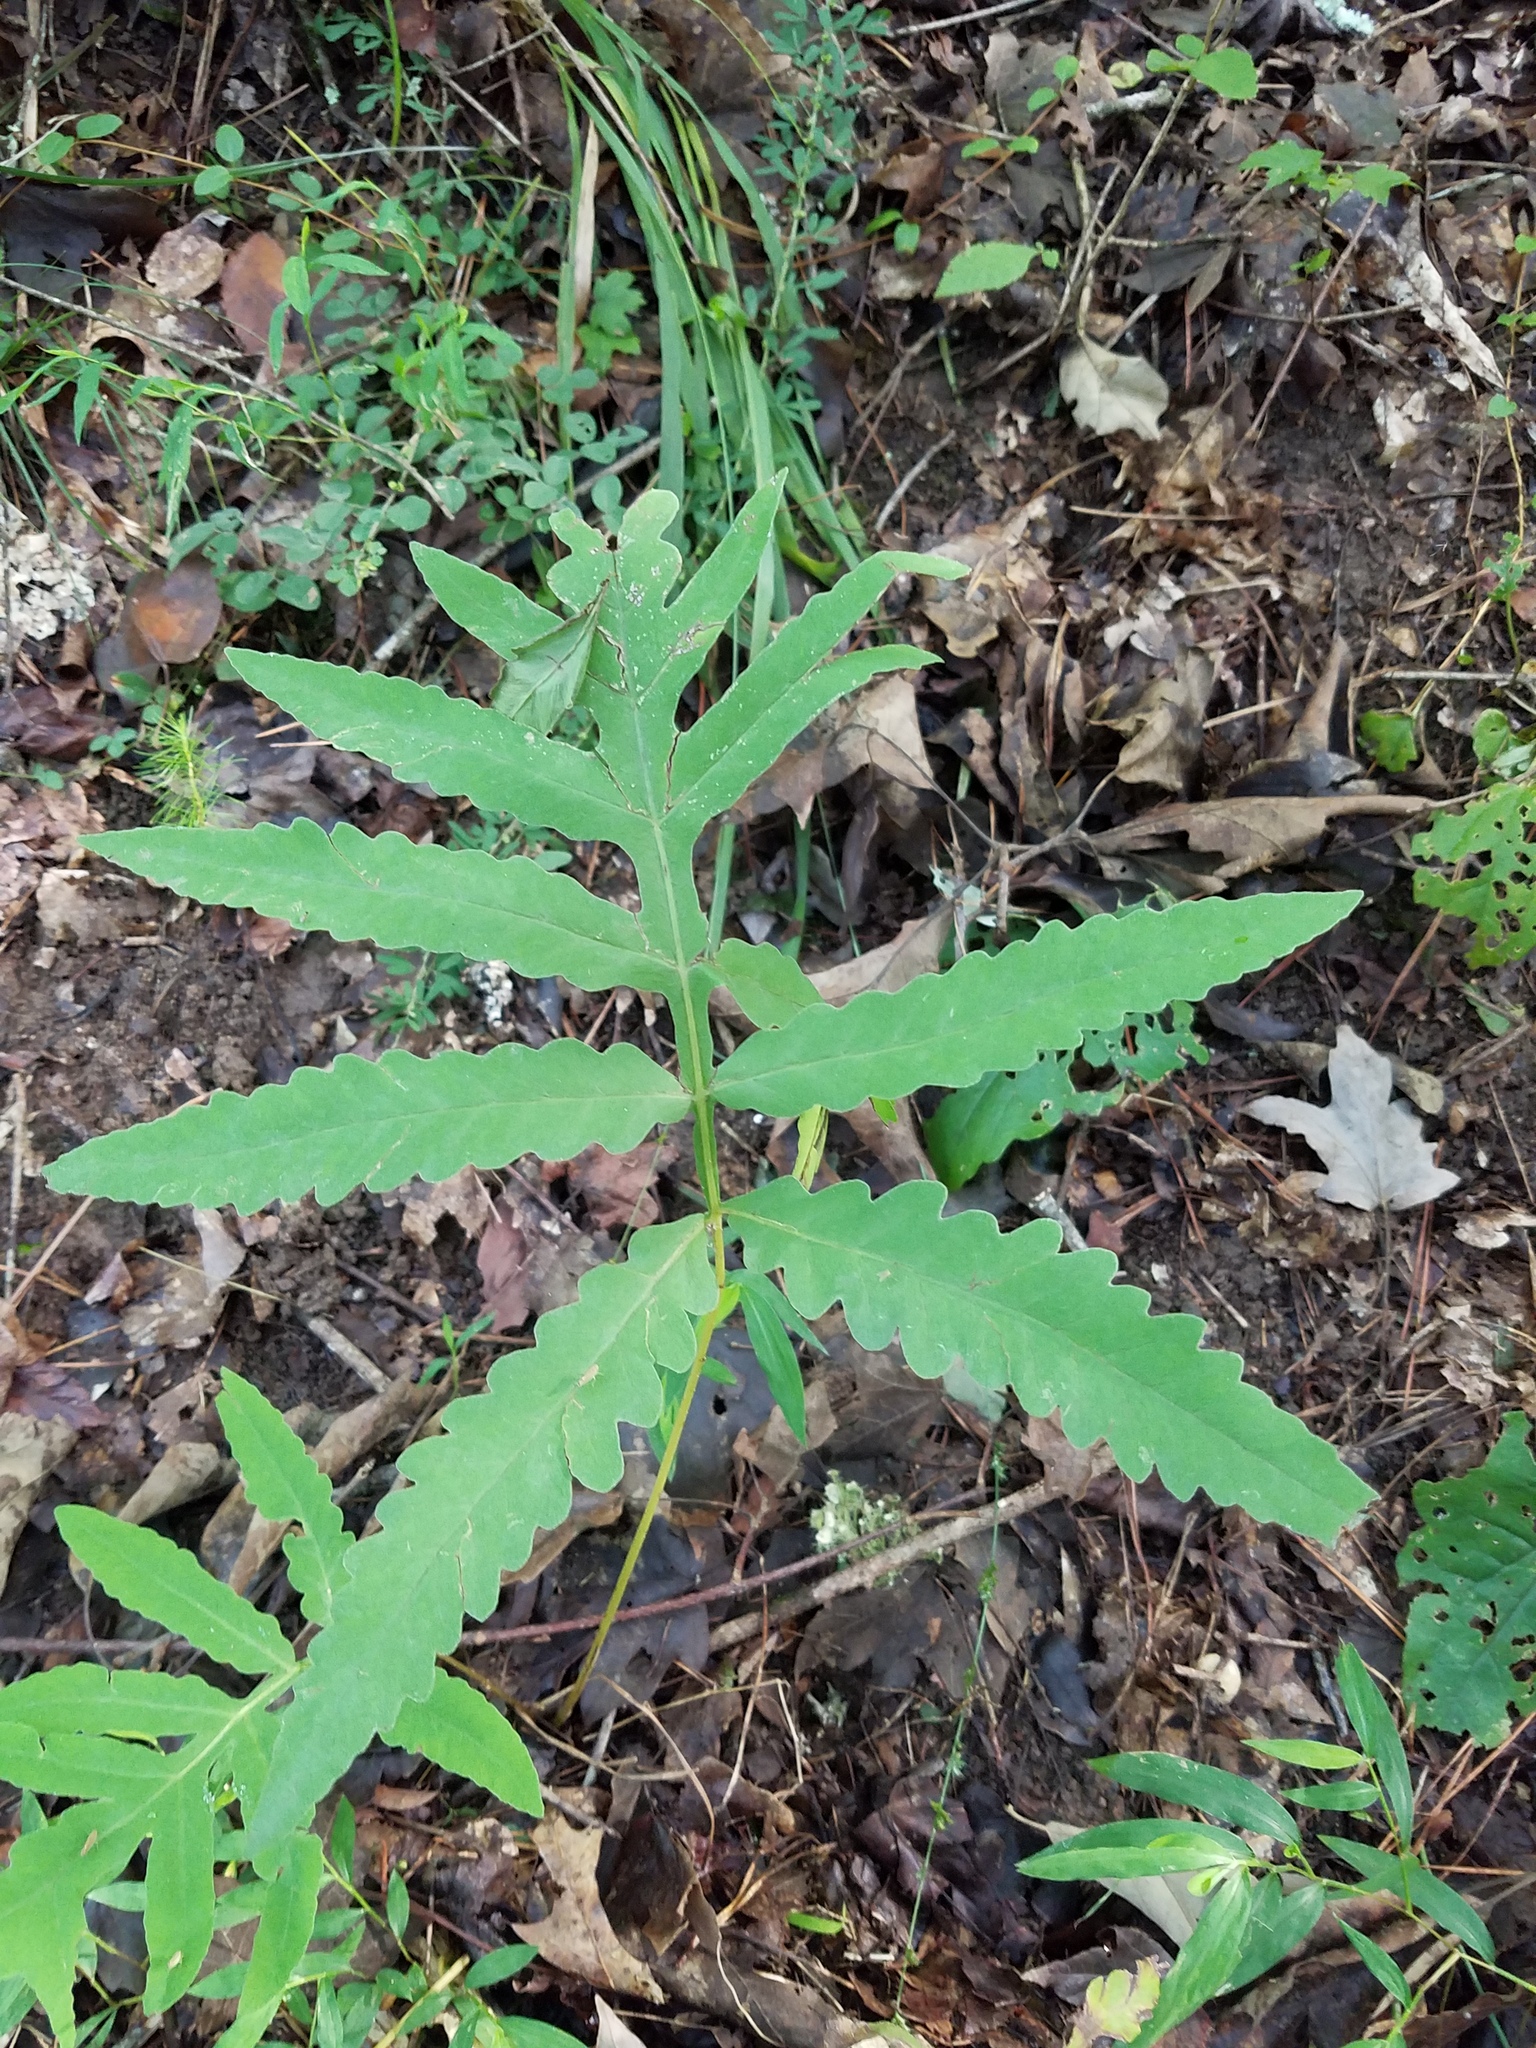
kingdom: Plantae
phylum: Tracheophyta
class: Polypodiopsida
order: Polypodiales
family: Onocleaceae
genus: Onoclea
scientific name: Onoclea sensibilis
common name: Sensitive fern
